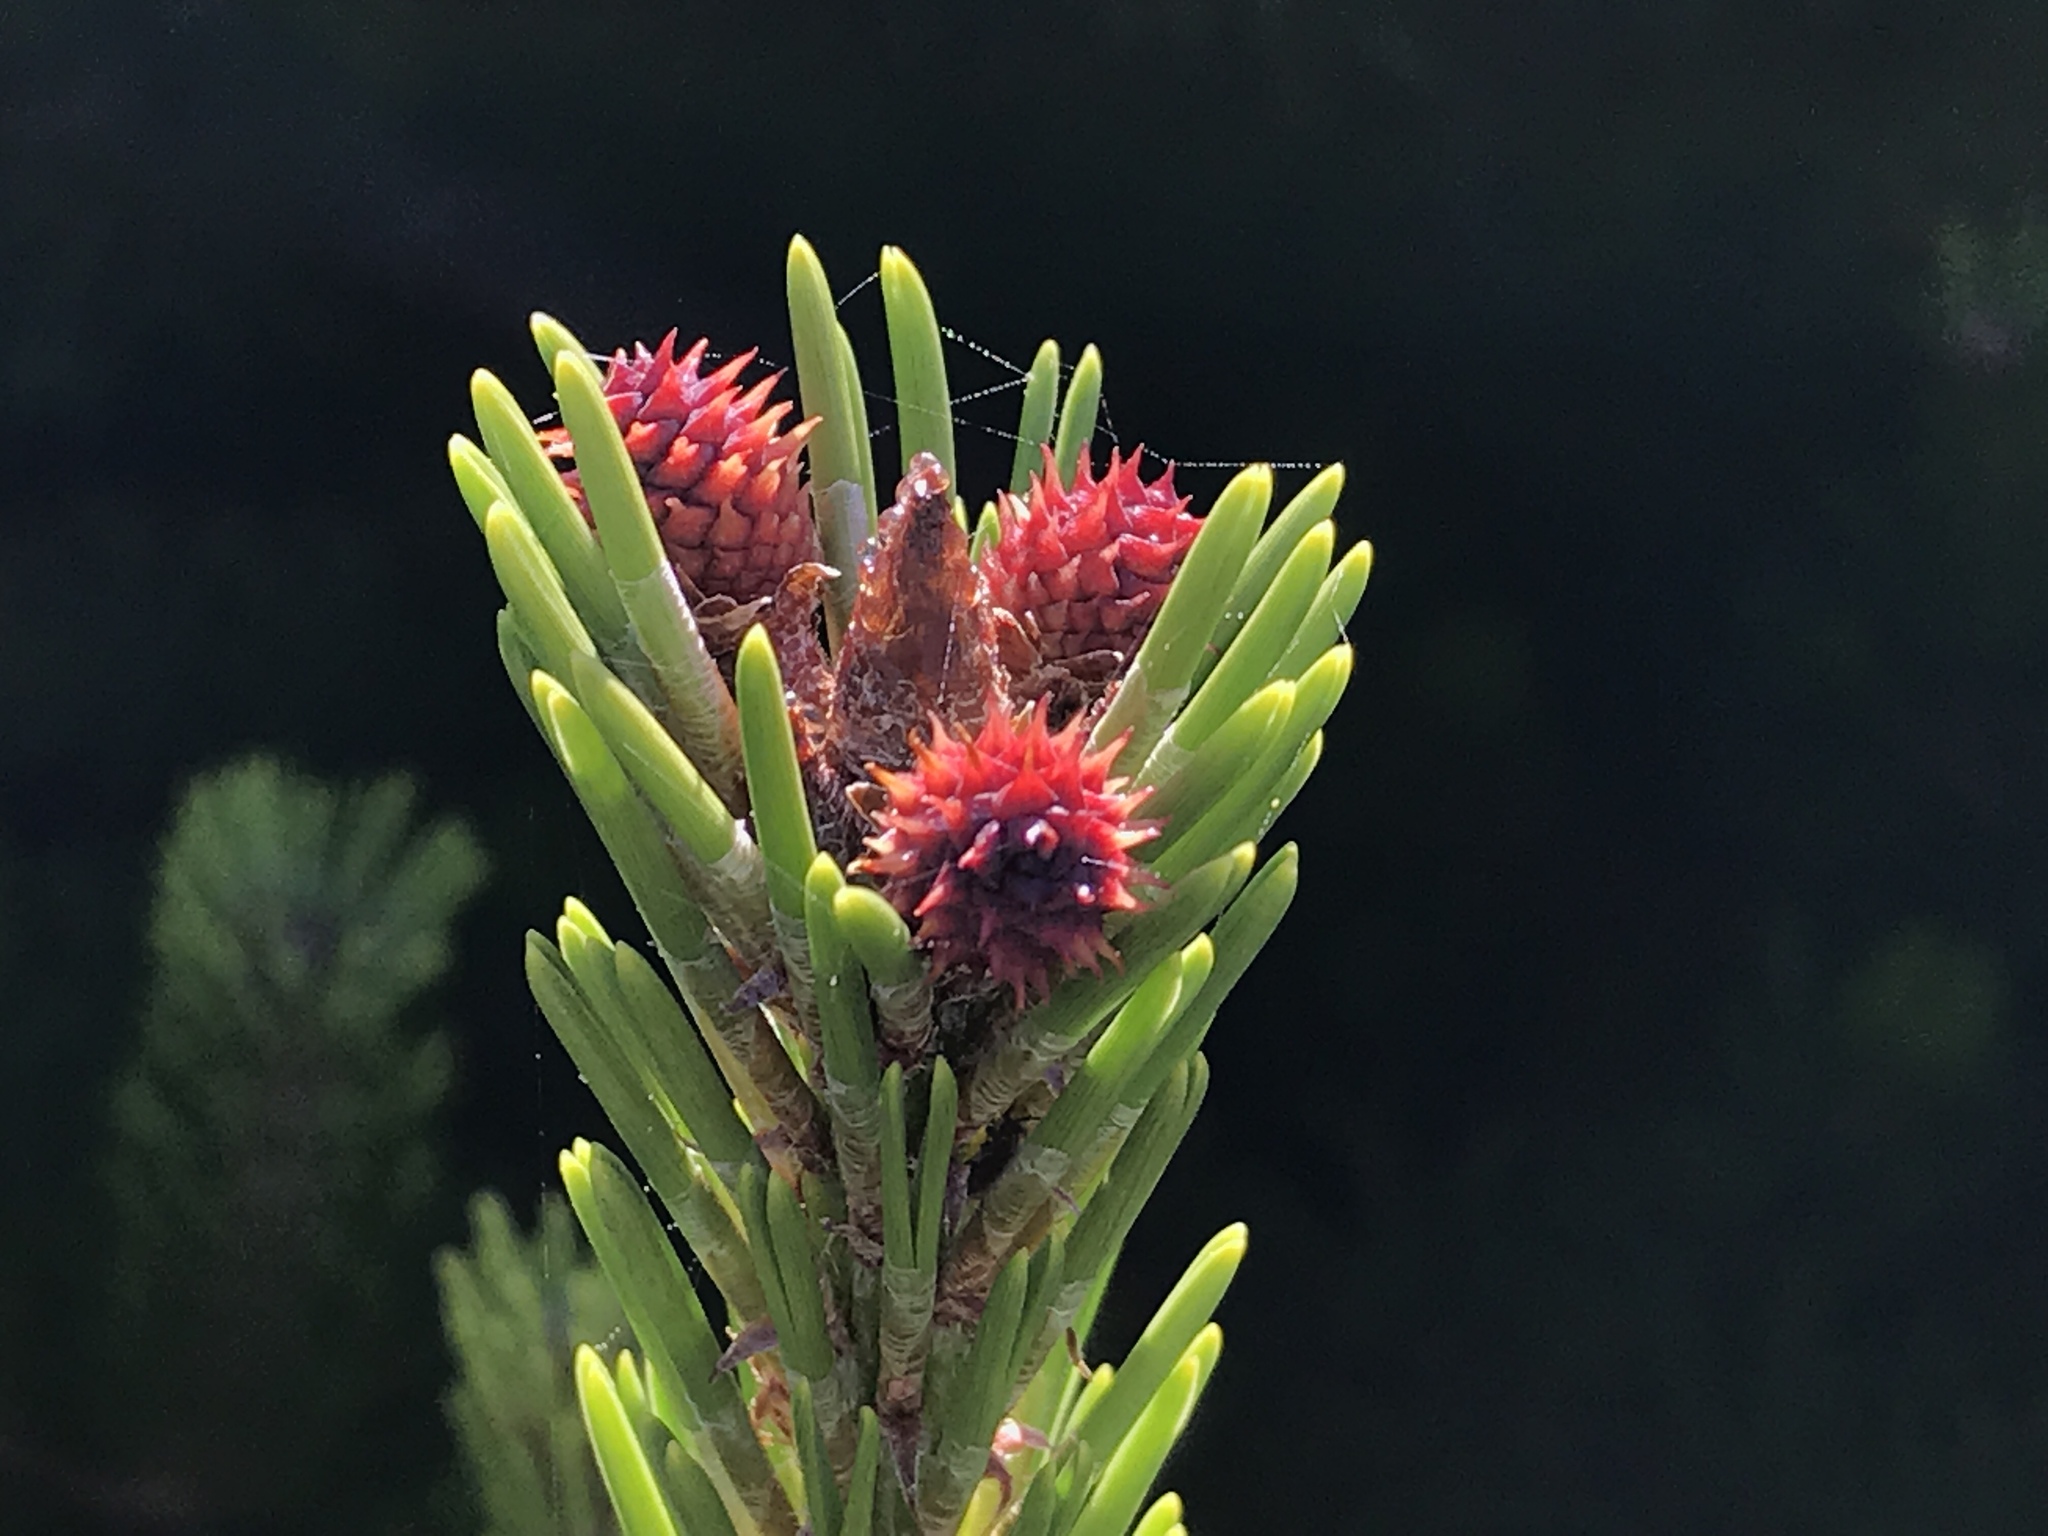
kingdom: Plantae
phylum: Tracheophyta
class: Pinopsida
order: Pinales
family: Pinaceae
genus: Pinus
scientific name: Pinus contorta
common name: Lodgepole pine
